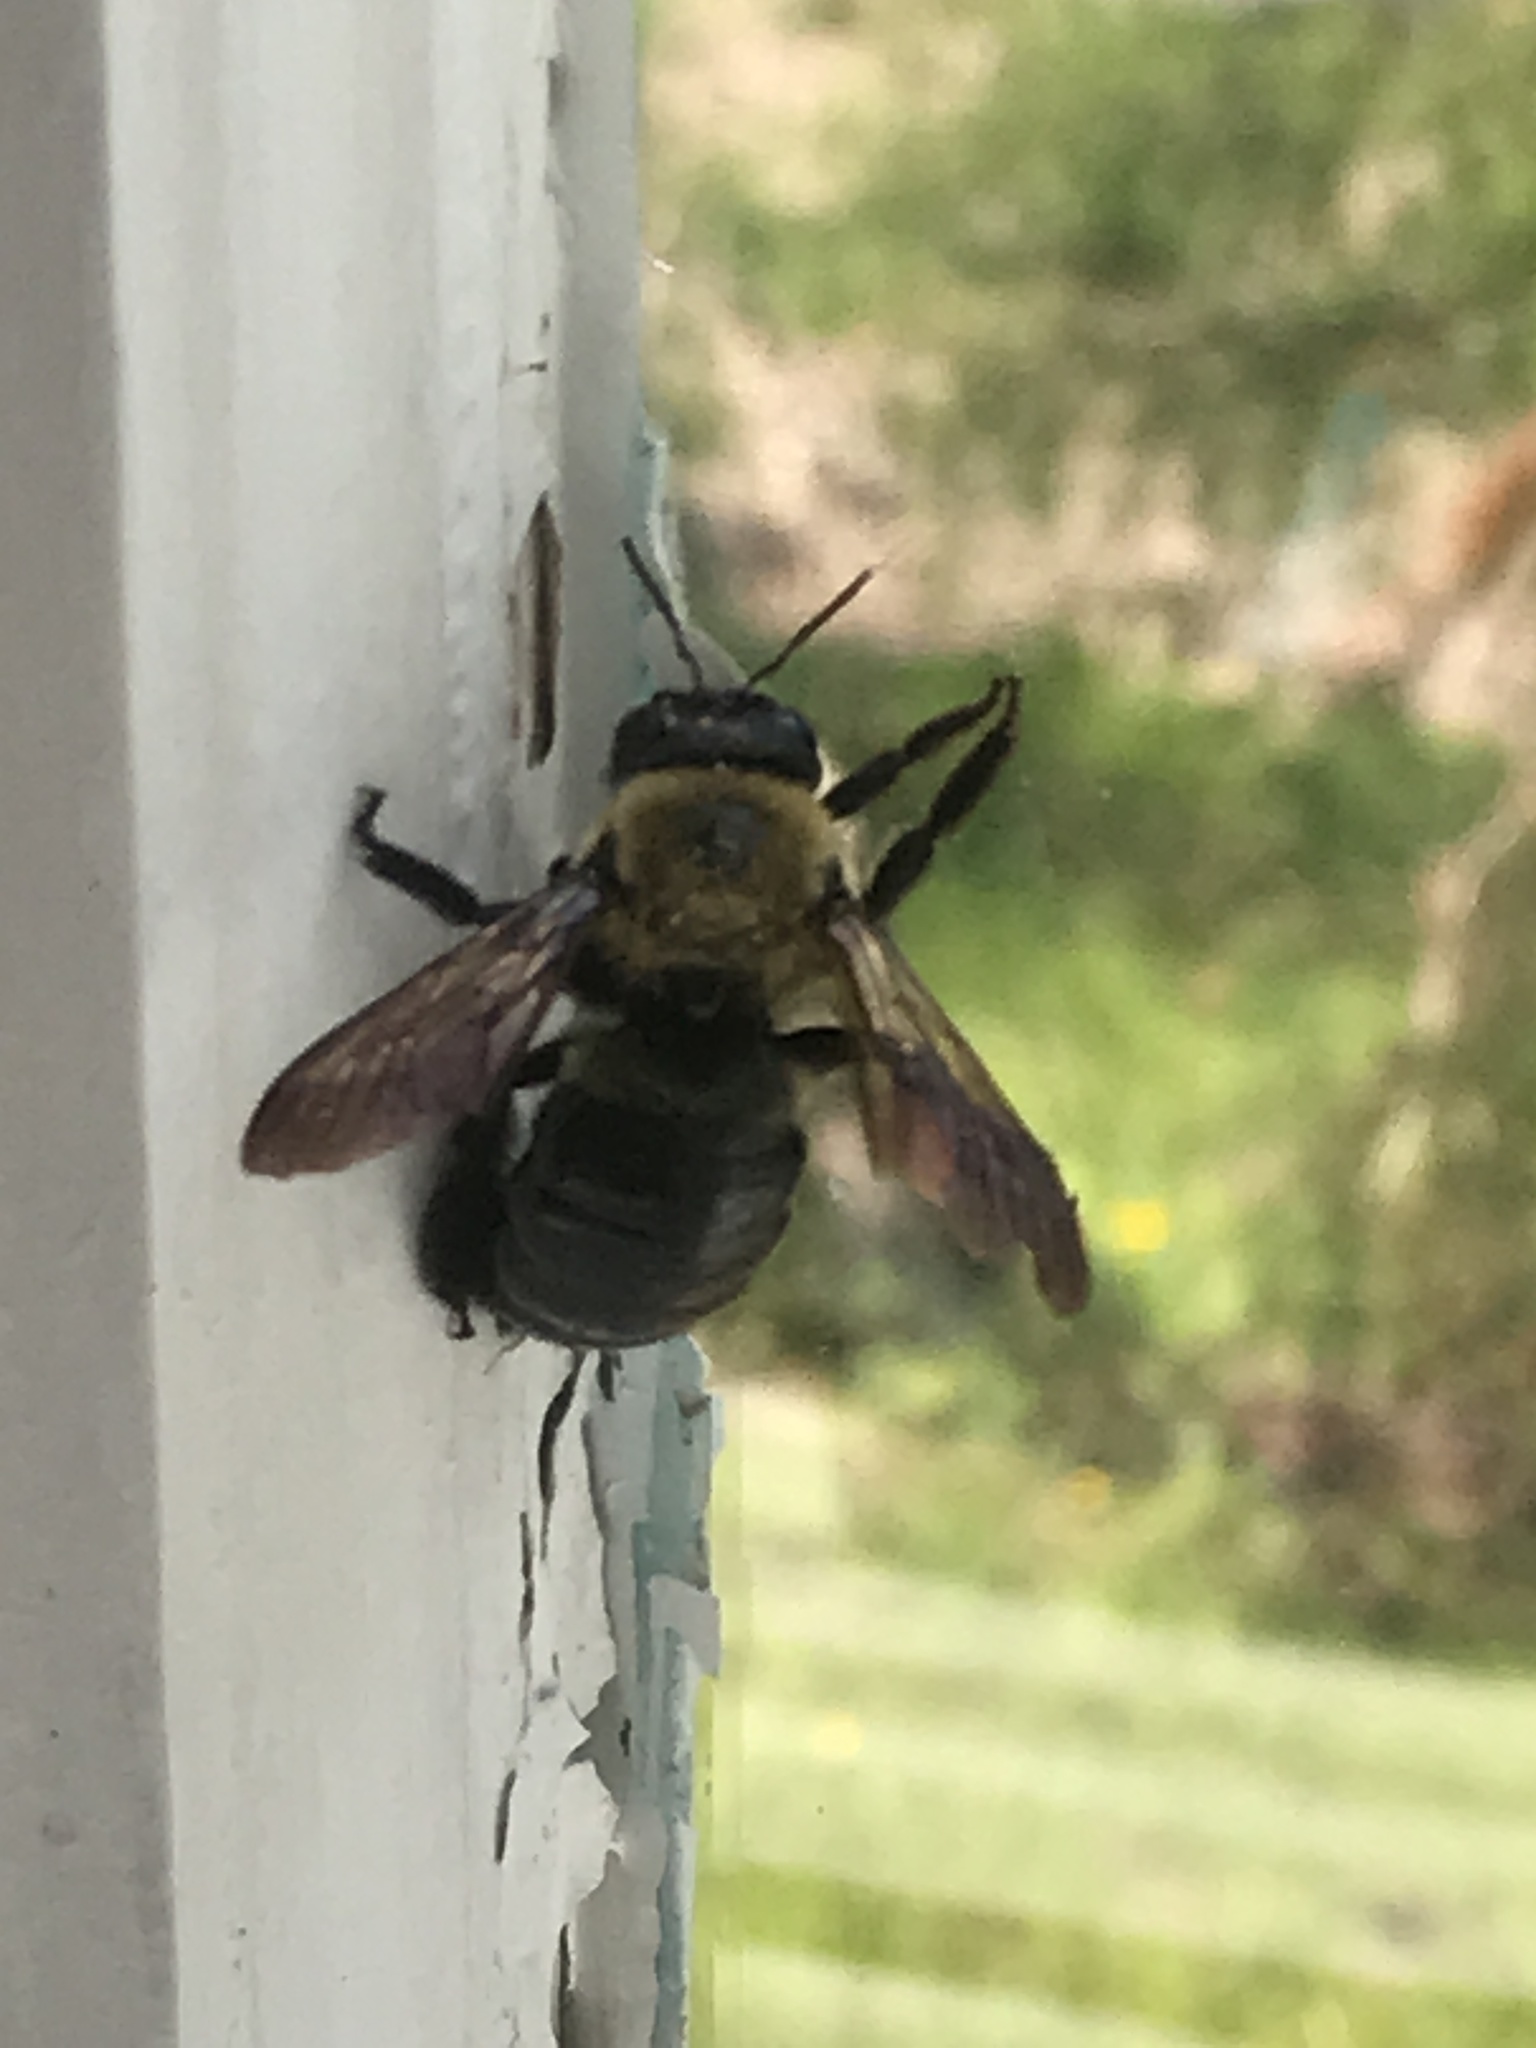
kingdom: Animalia
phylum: Arthropoda
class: Insecta
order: Hymenoptera
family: Apidae
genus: Xylocopa
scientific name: Xylocopa virginica
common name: Carpenter bee
